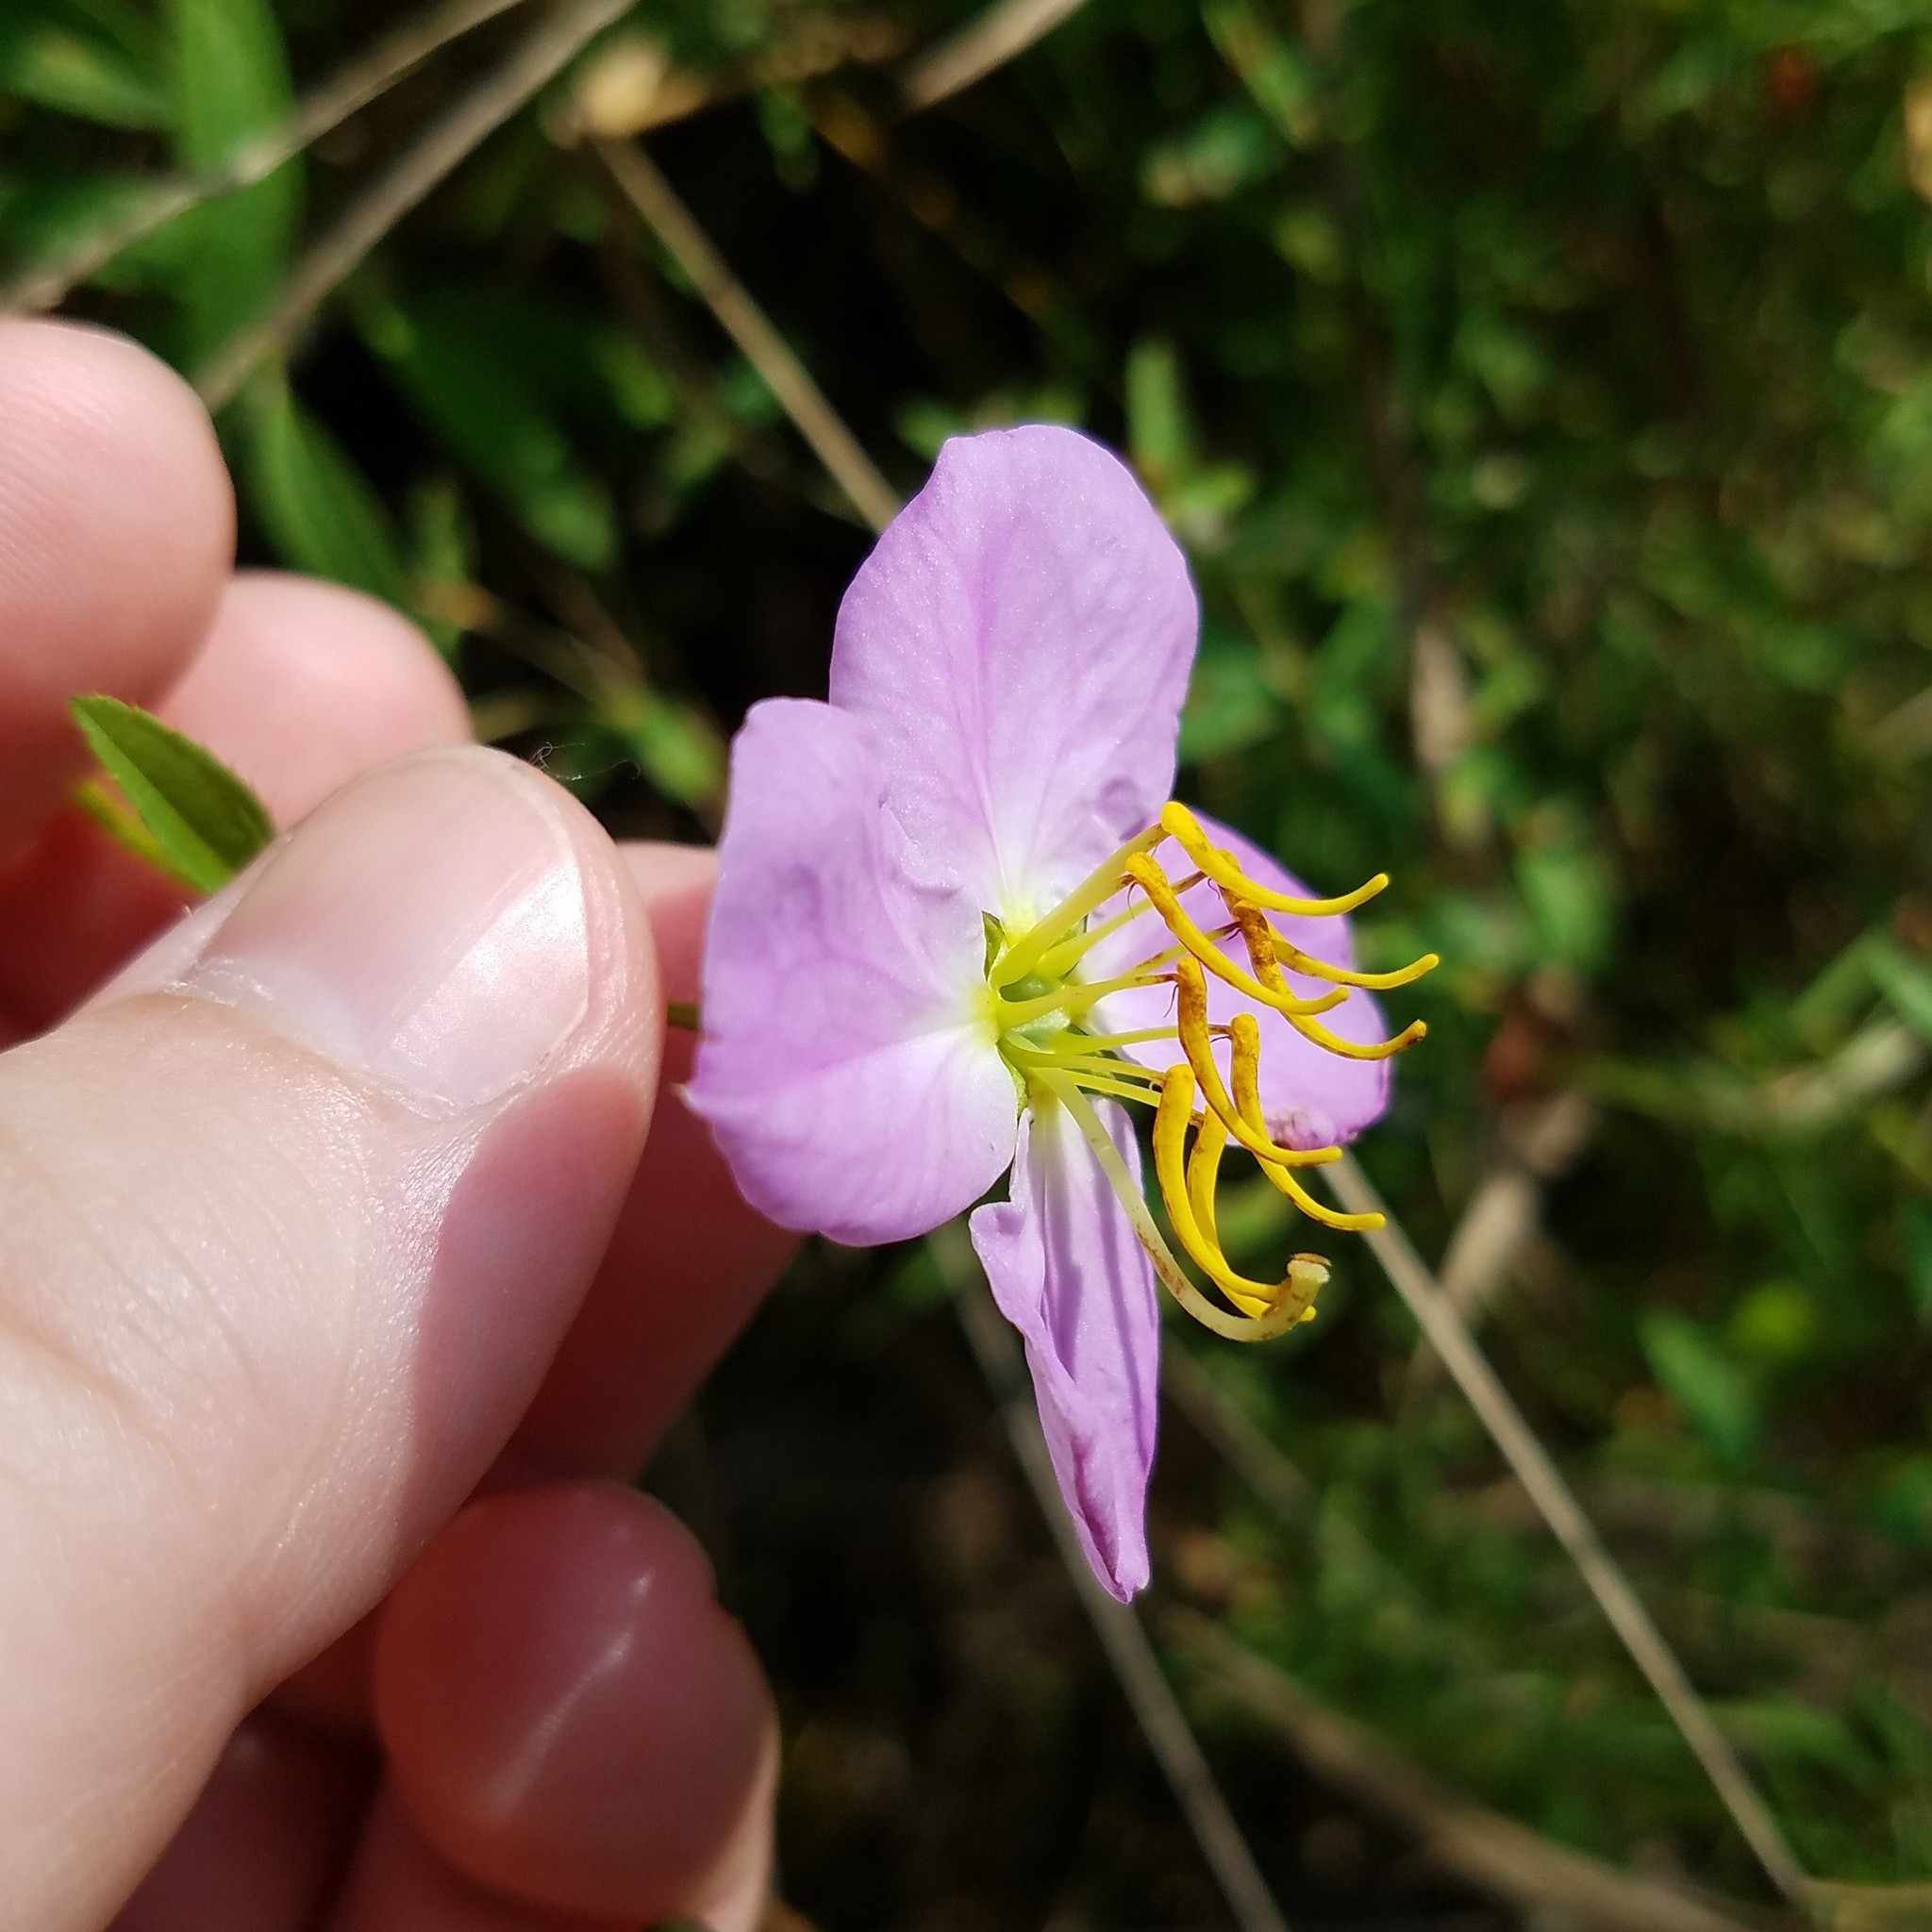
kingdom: Plantae
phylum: Tracheophyta
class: Magnoliopsida
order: Myrtales
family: Melastomataceae
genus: Rhexia
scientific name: Rhexia mariana
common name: Dull meadow-pitcher
